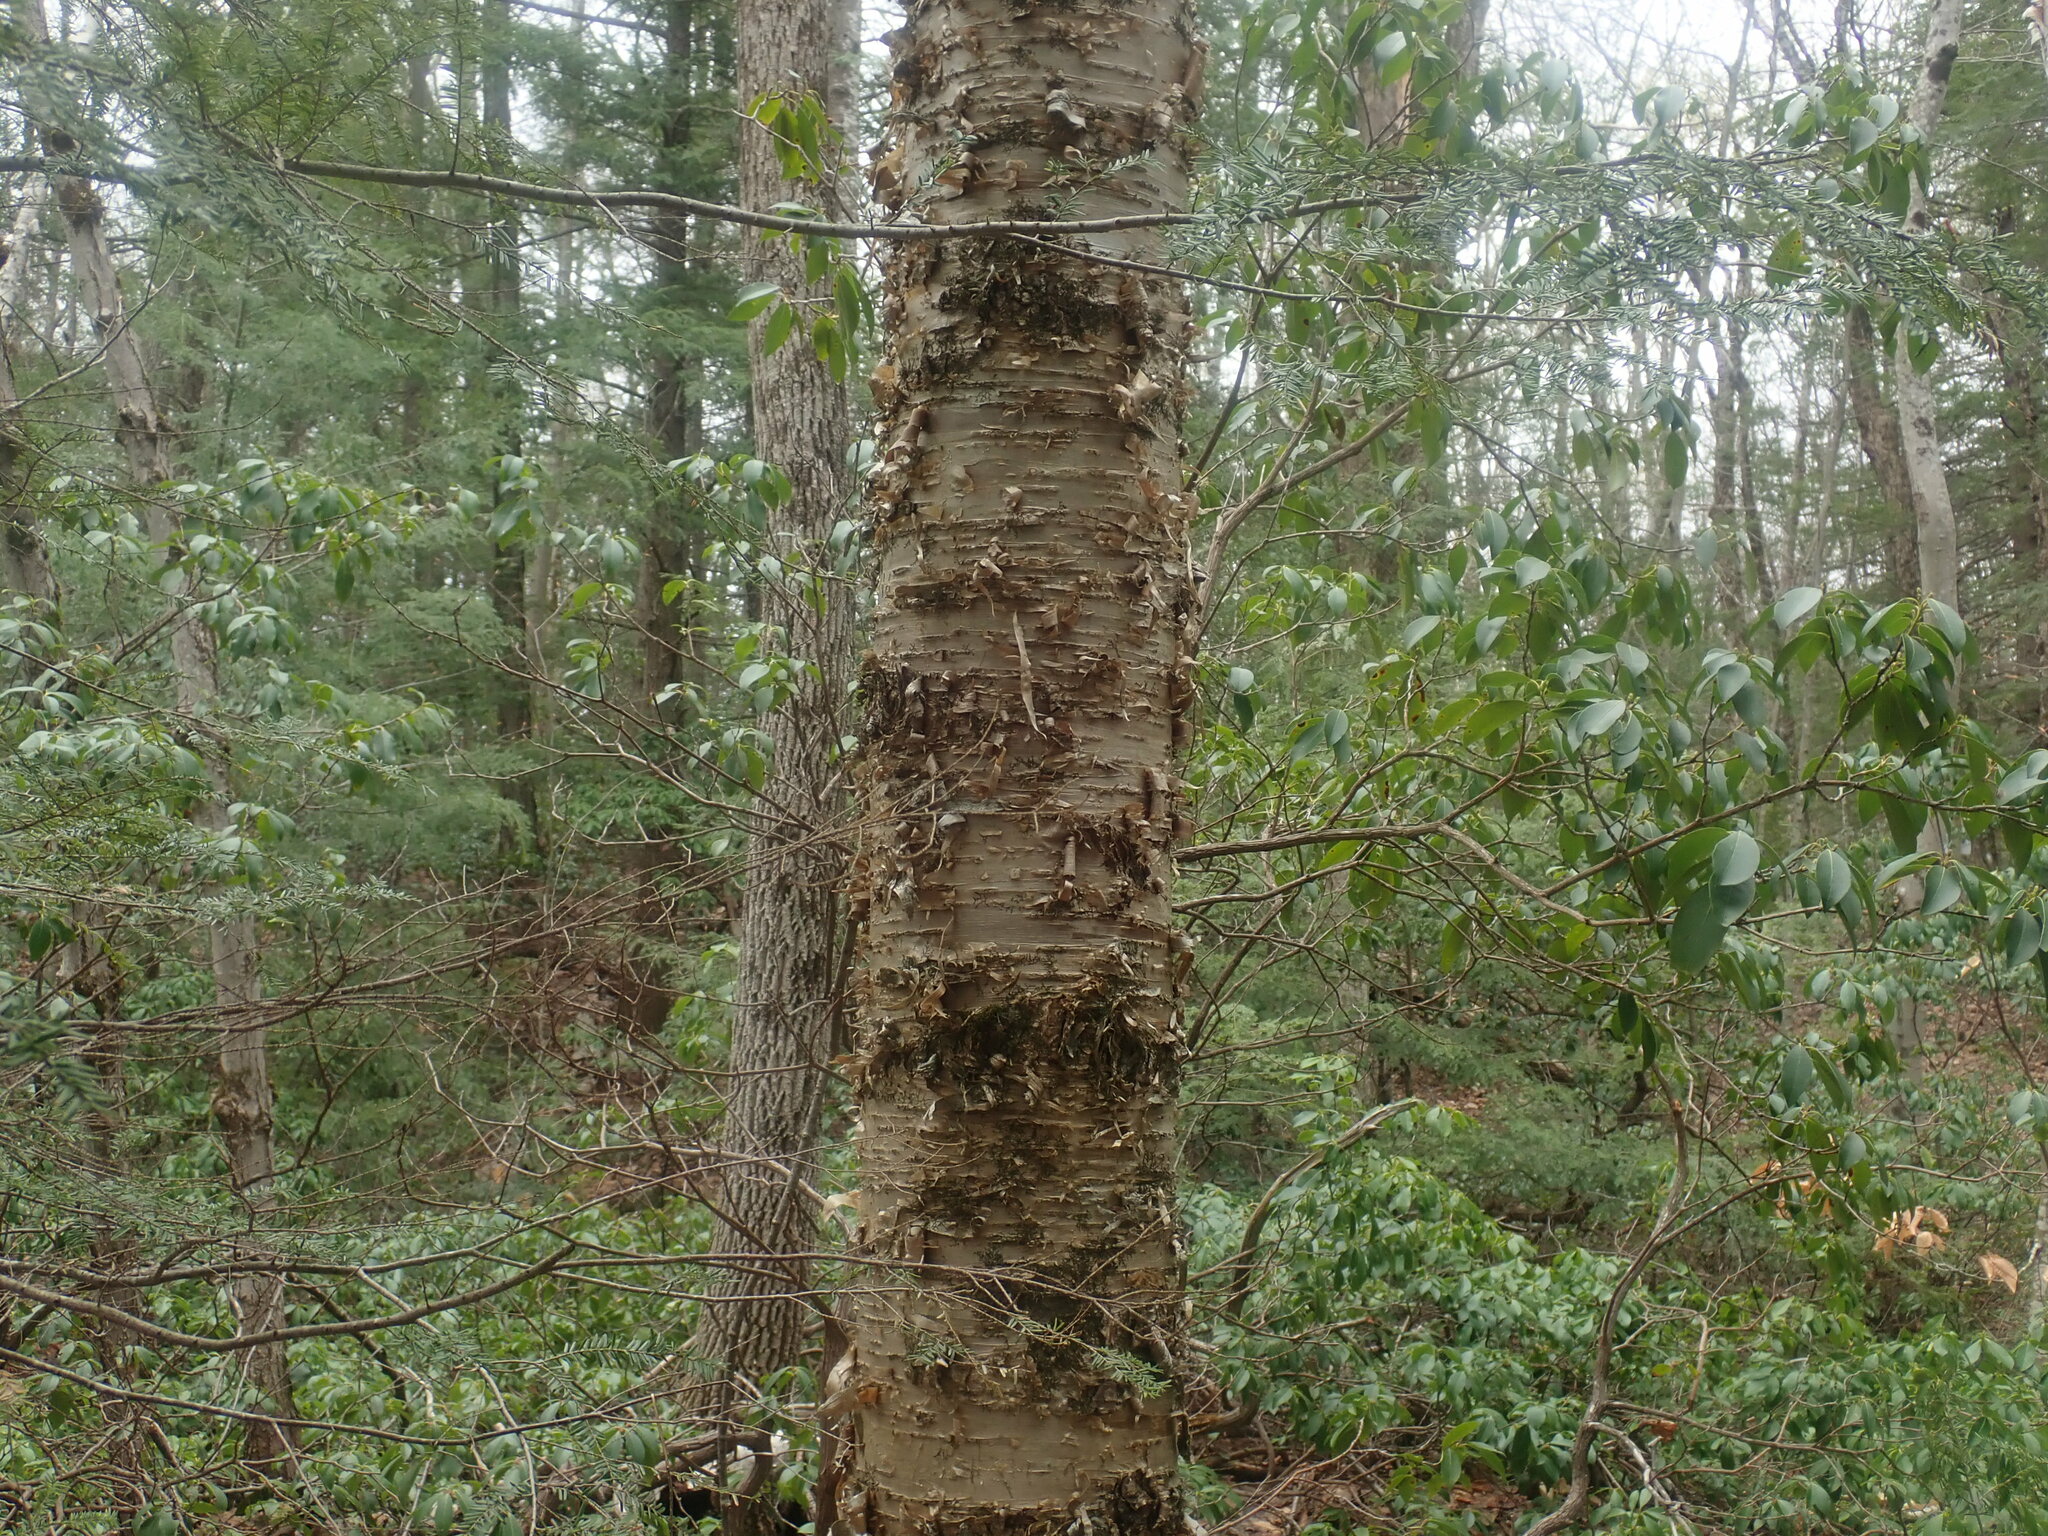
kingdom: Plantae
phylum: Tracheophyta
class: Magnoliopsida
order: Fagales
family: Betulaceae
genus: Betula
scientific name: Betula alleghaniensis
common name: Yellow birch
